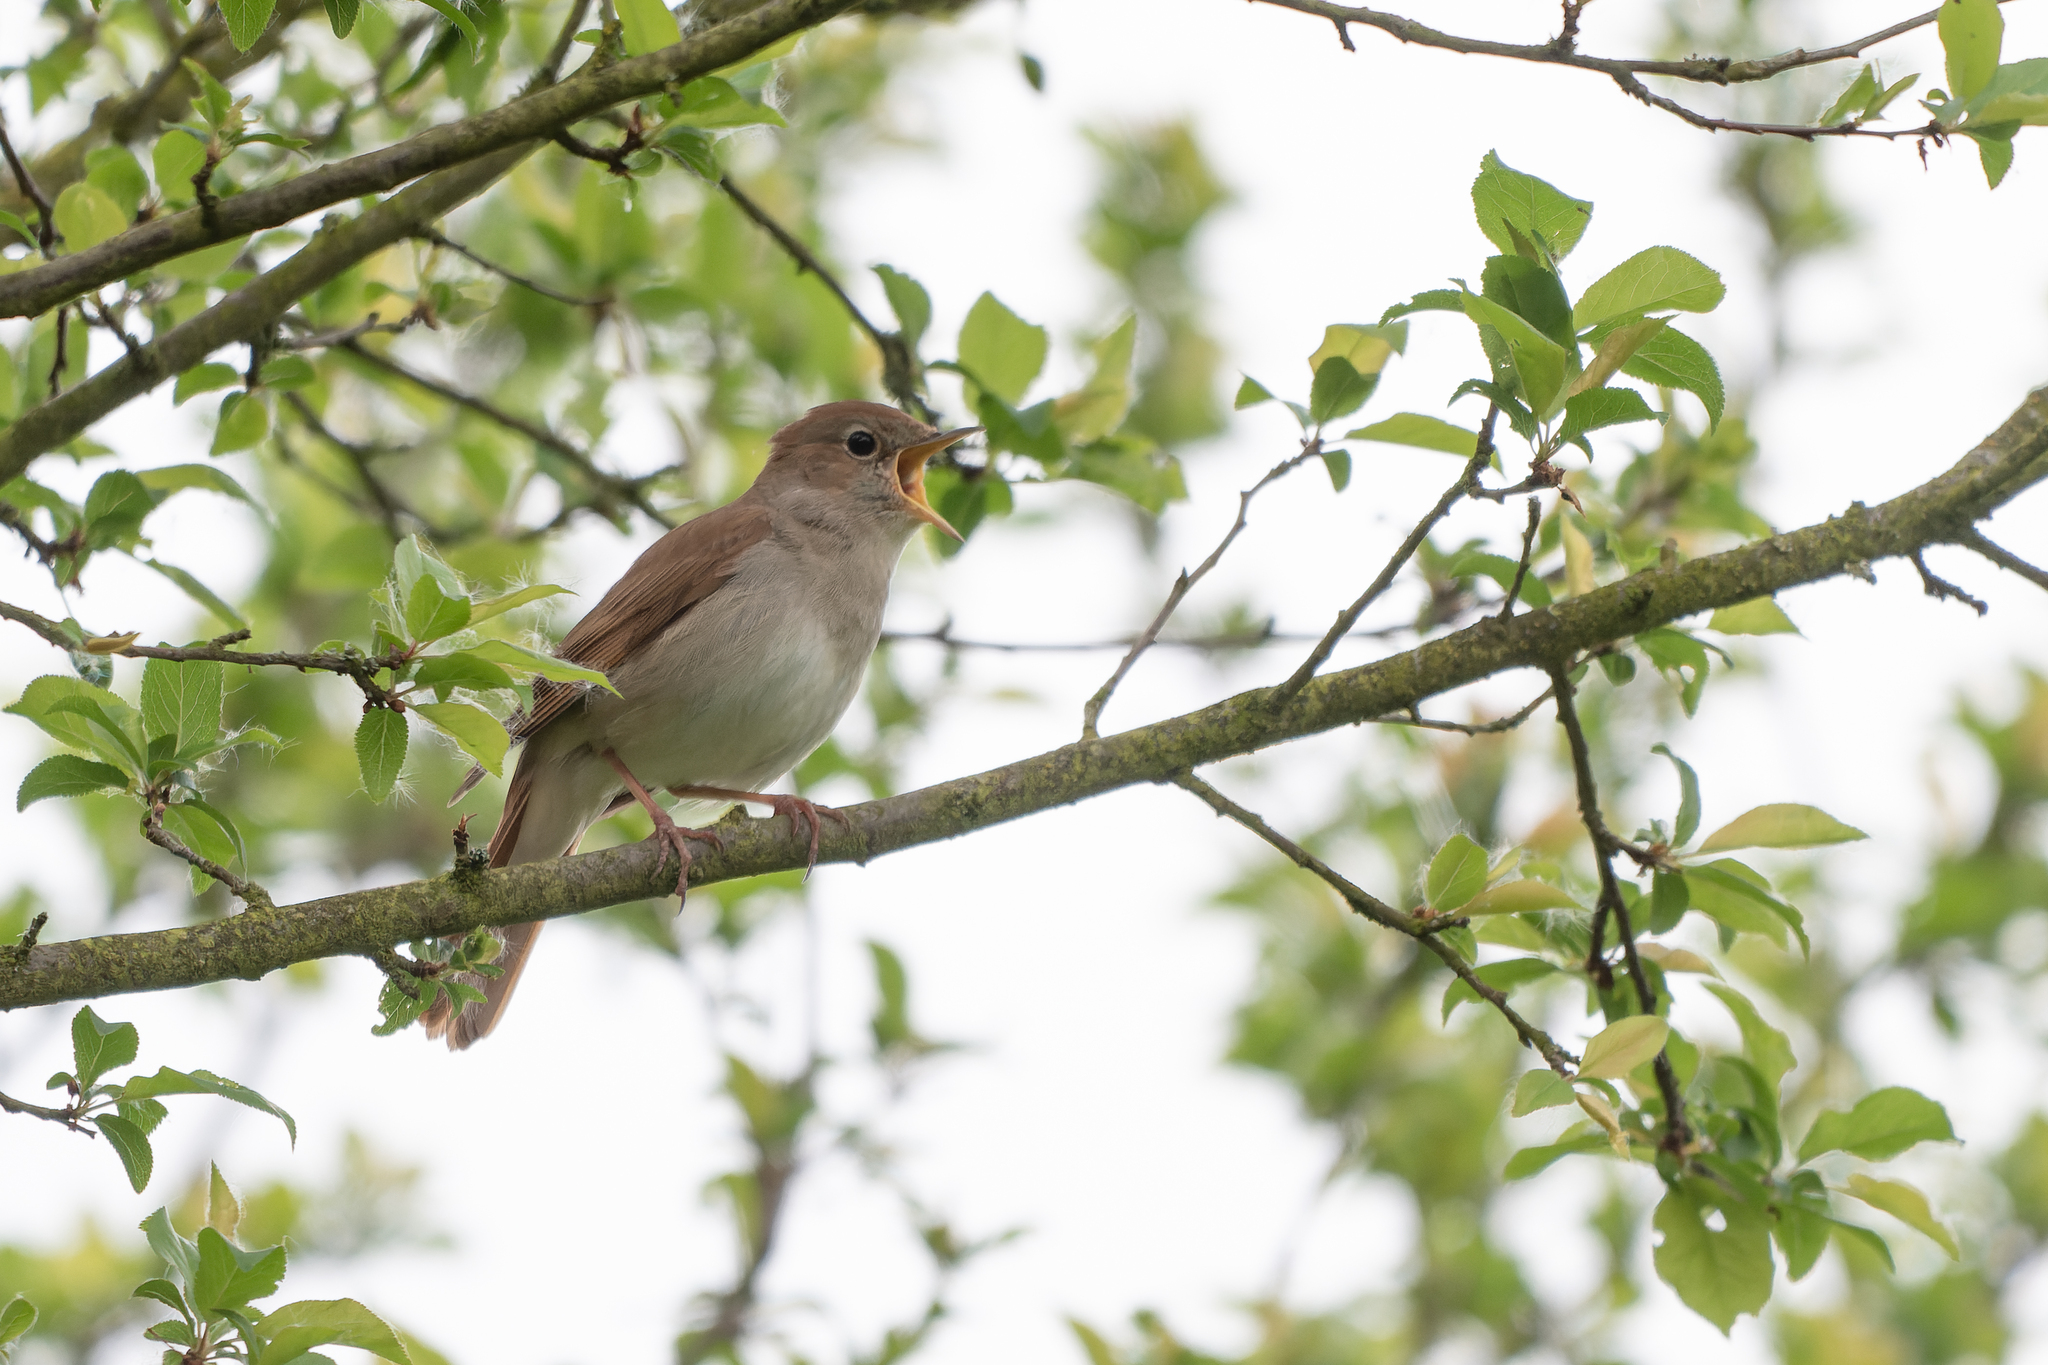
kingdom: Animalia
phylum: Chordata
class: Aves
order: Passeriformes
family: Muscicapidae
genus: Luscinia
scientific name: Luscinia megarhynchos
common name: Common nightingale
